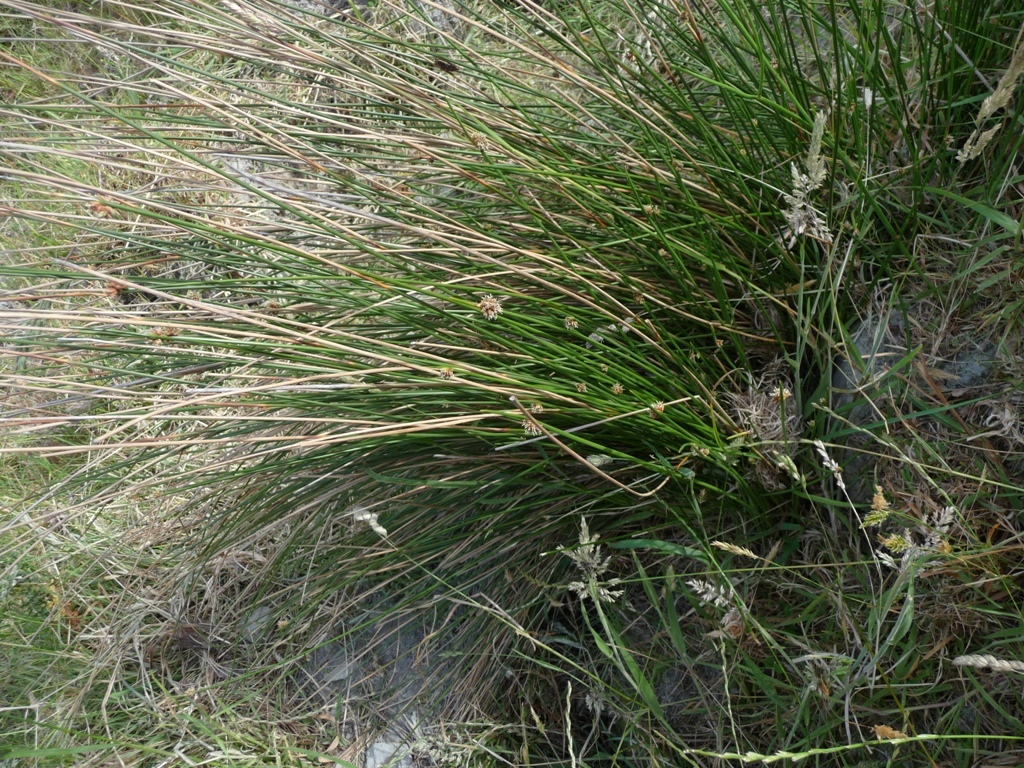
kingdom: Plantae
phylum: Tracheophyta
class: Liliopsida
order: Poales
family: Cyperaceae
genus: Ficinia
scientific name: Ficinia nodosa
